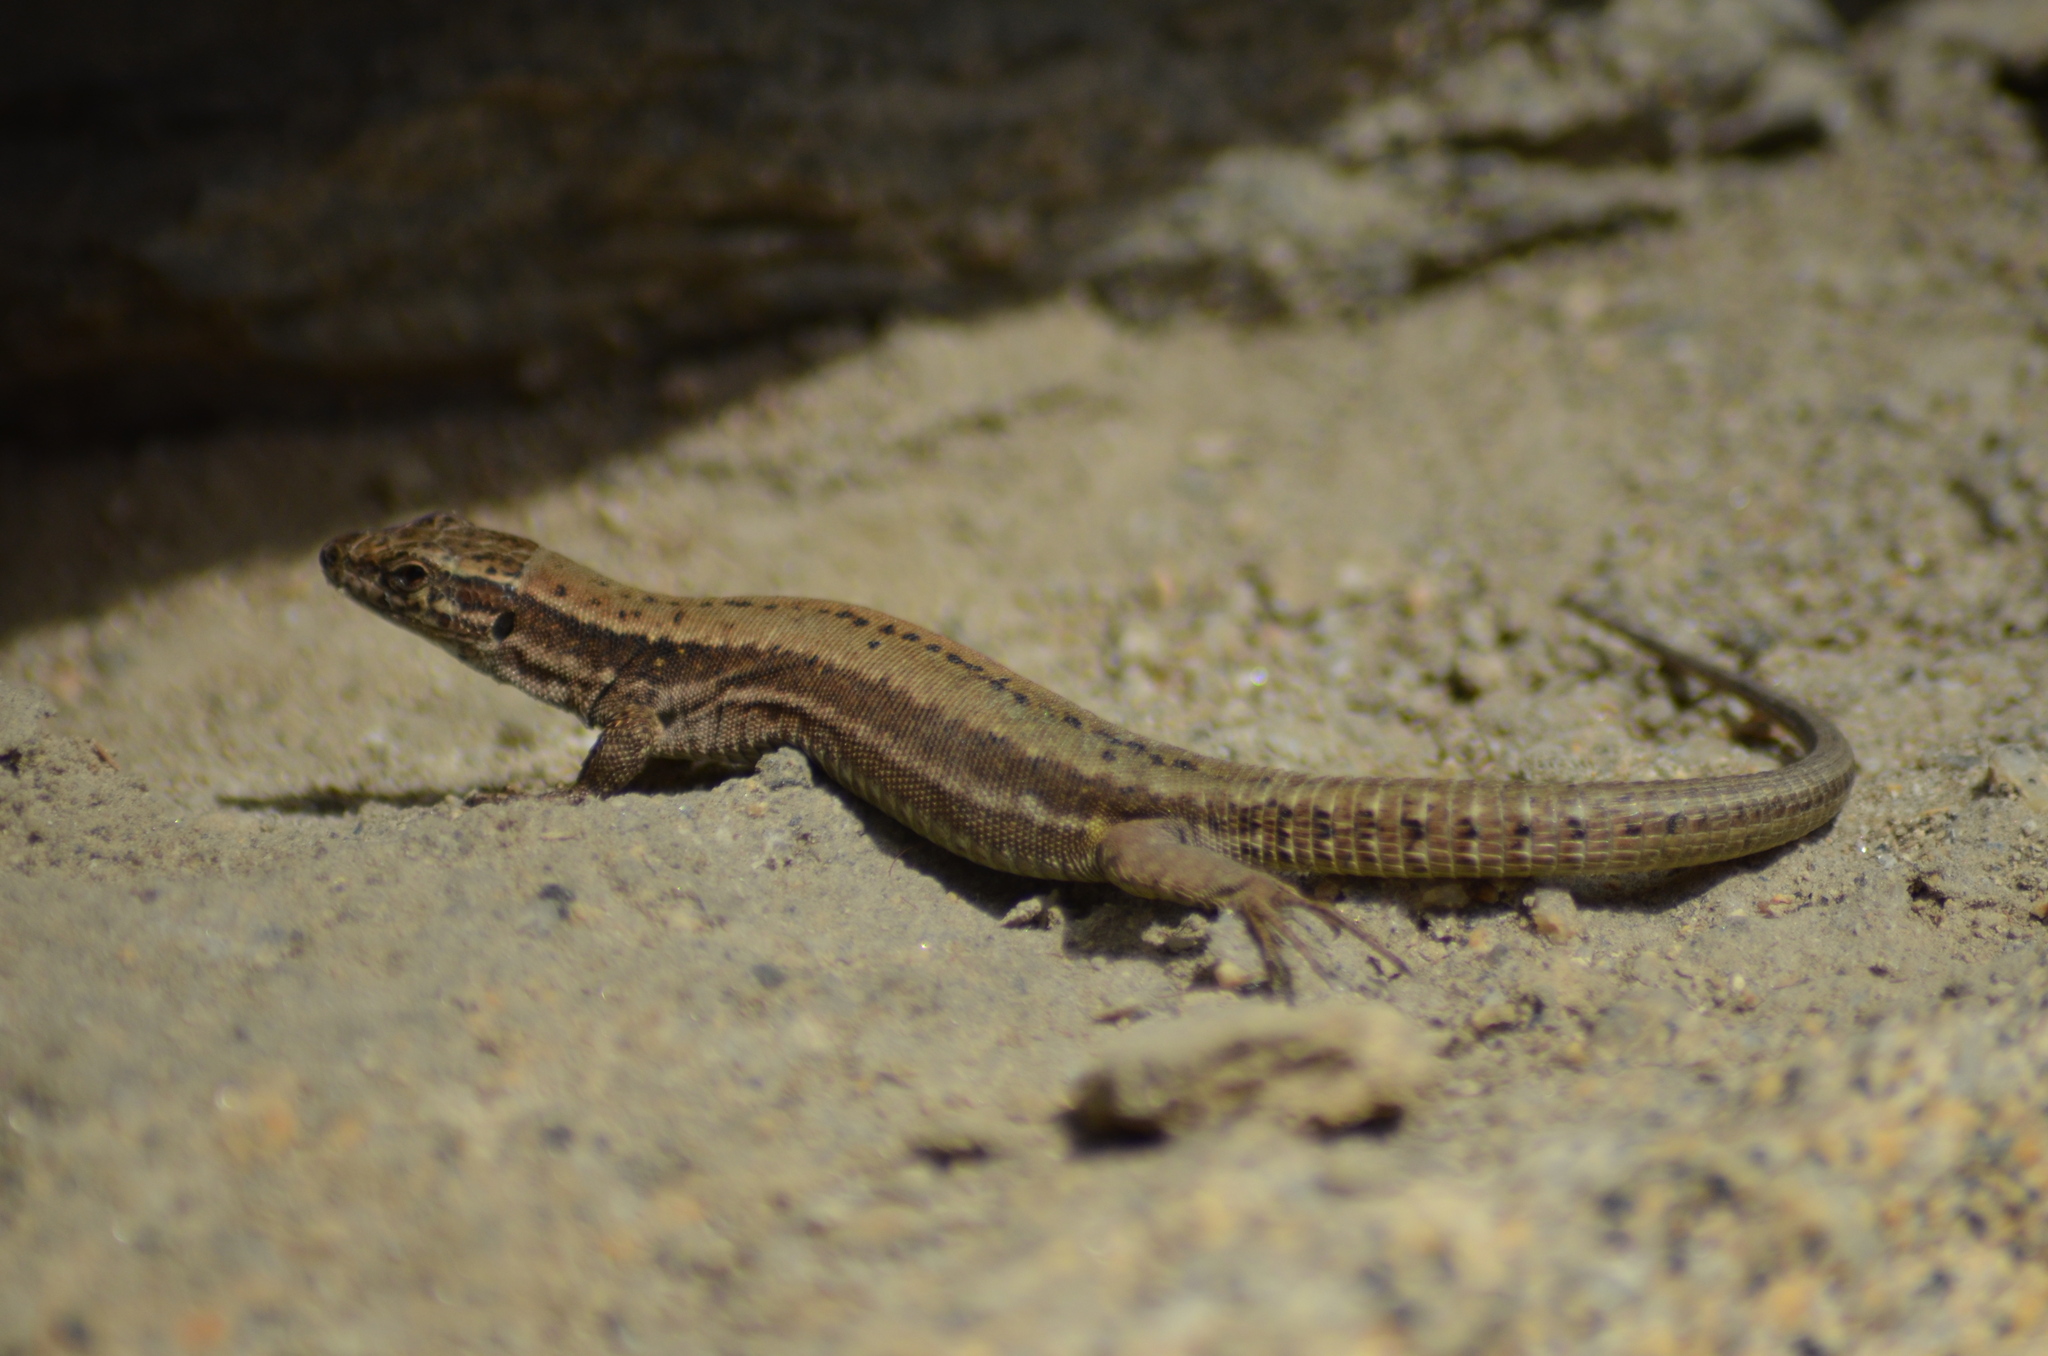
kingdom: Animalia
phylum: Chordata
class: Squamata
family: Lacertidae
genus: Podarcis
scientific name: Podarcis muralis
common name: Common wall lizard
